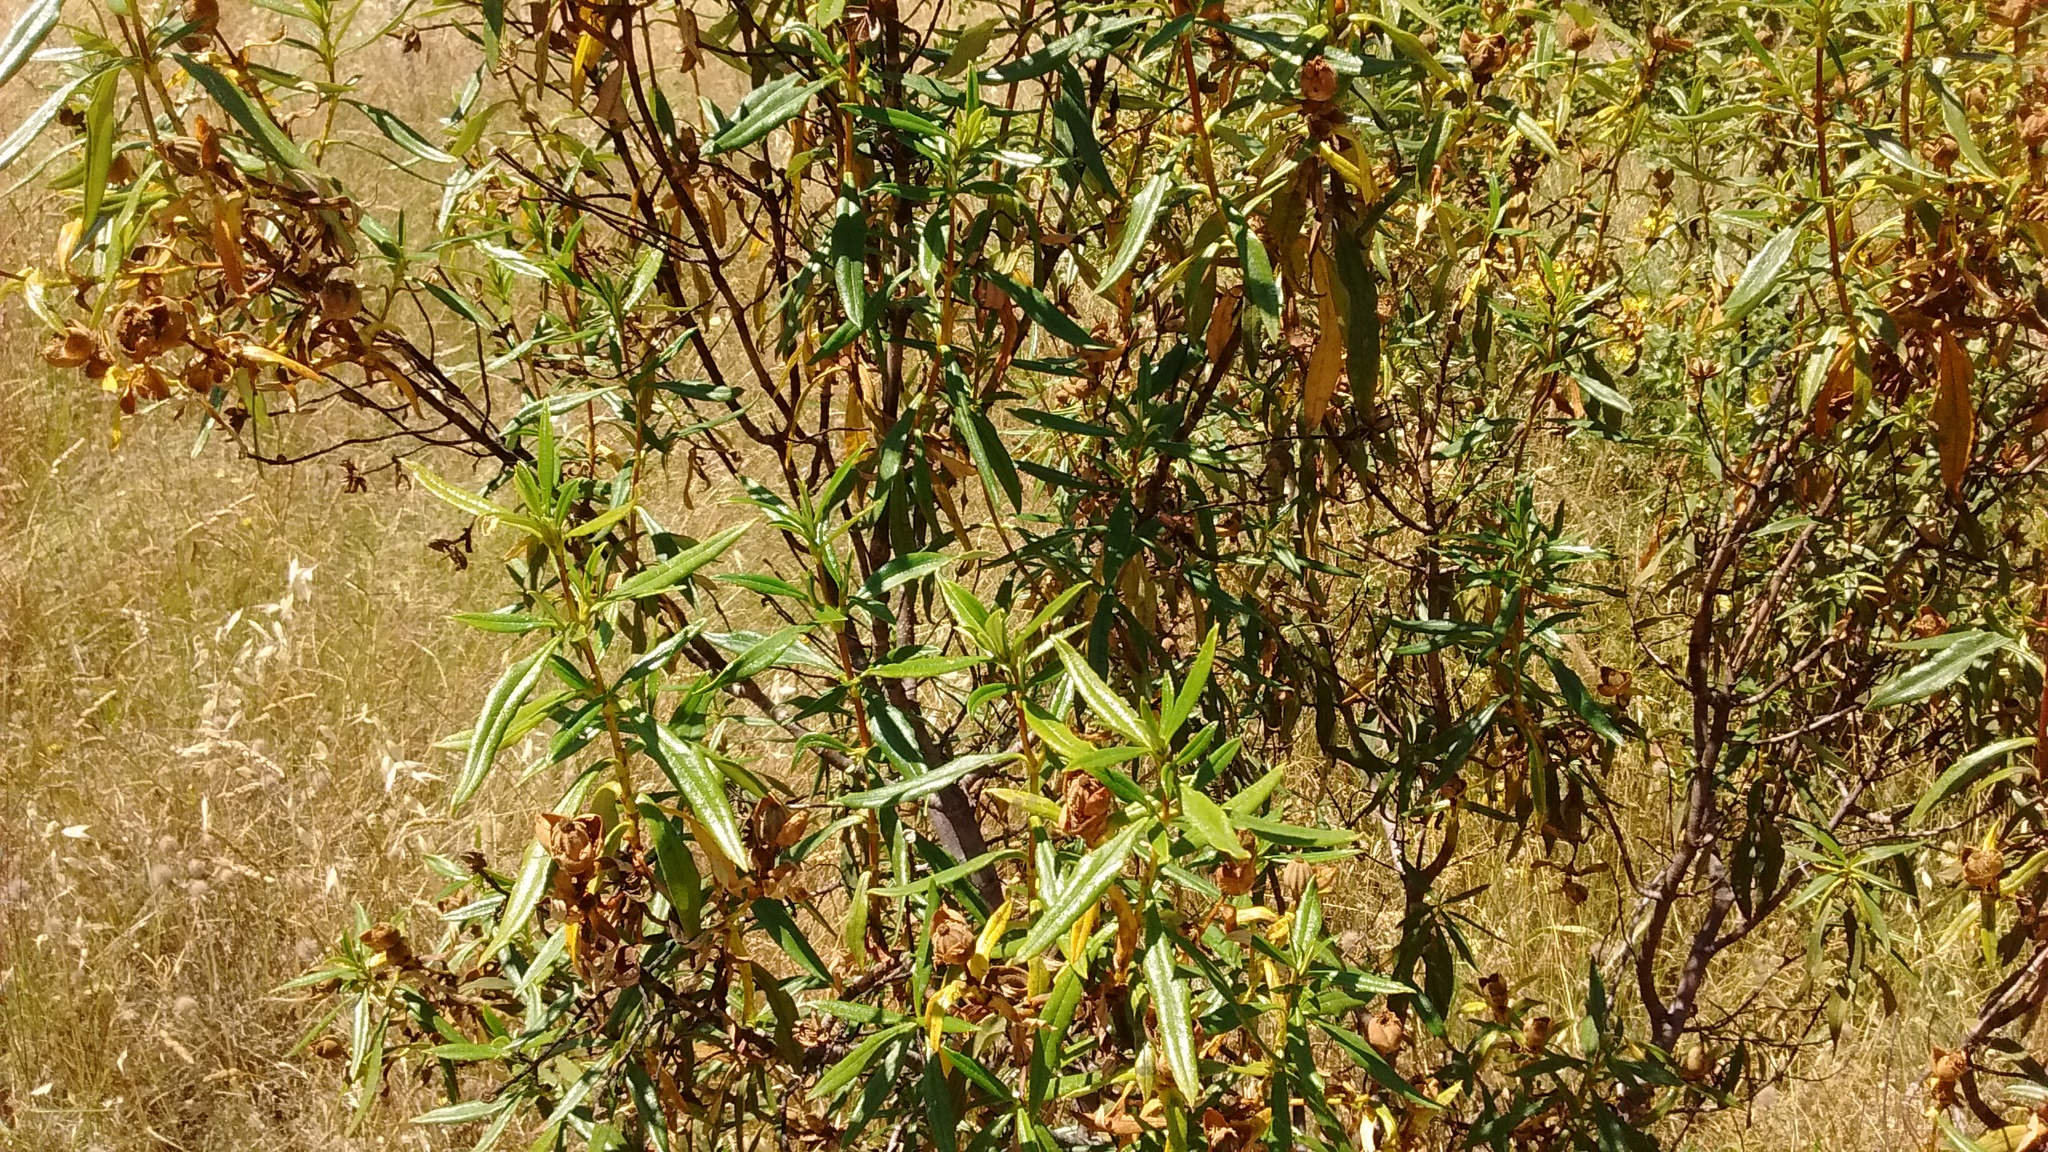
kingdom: Plantae
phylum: Tracheophyta
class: Magnoliopsida
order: Malvales
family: Cistaceae
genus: Cistus
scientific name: Cistus ladanifer
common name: Common gum cistus
